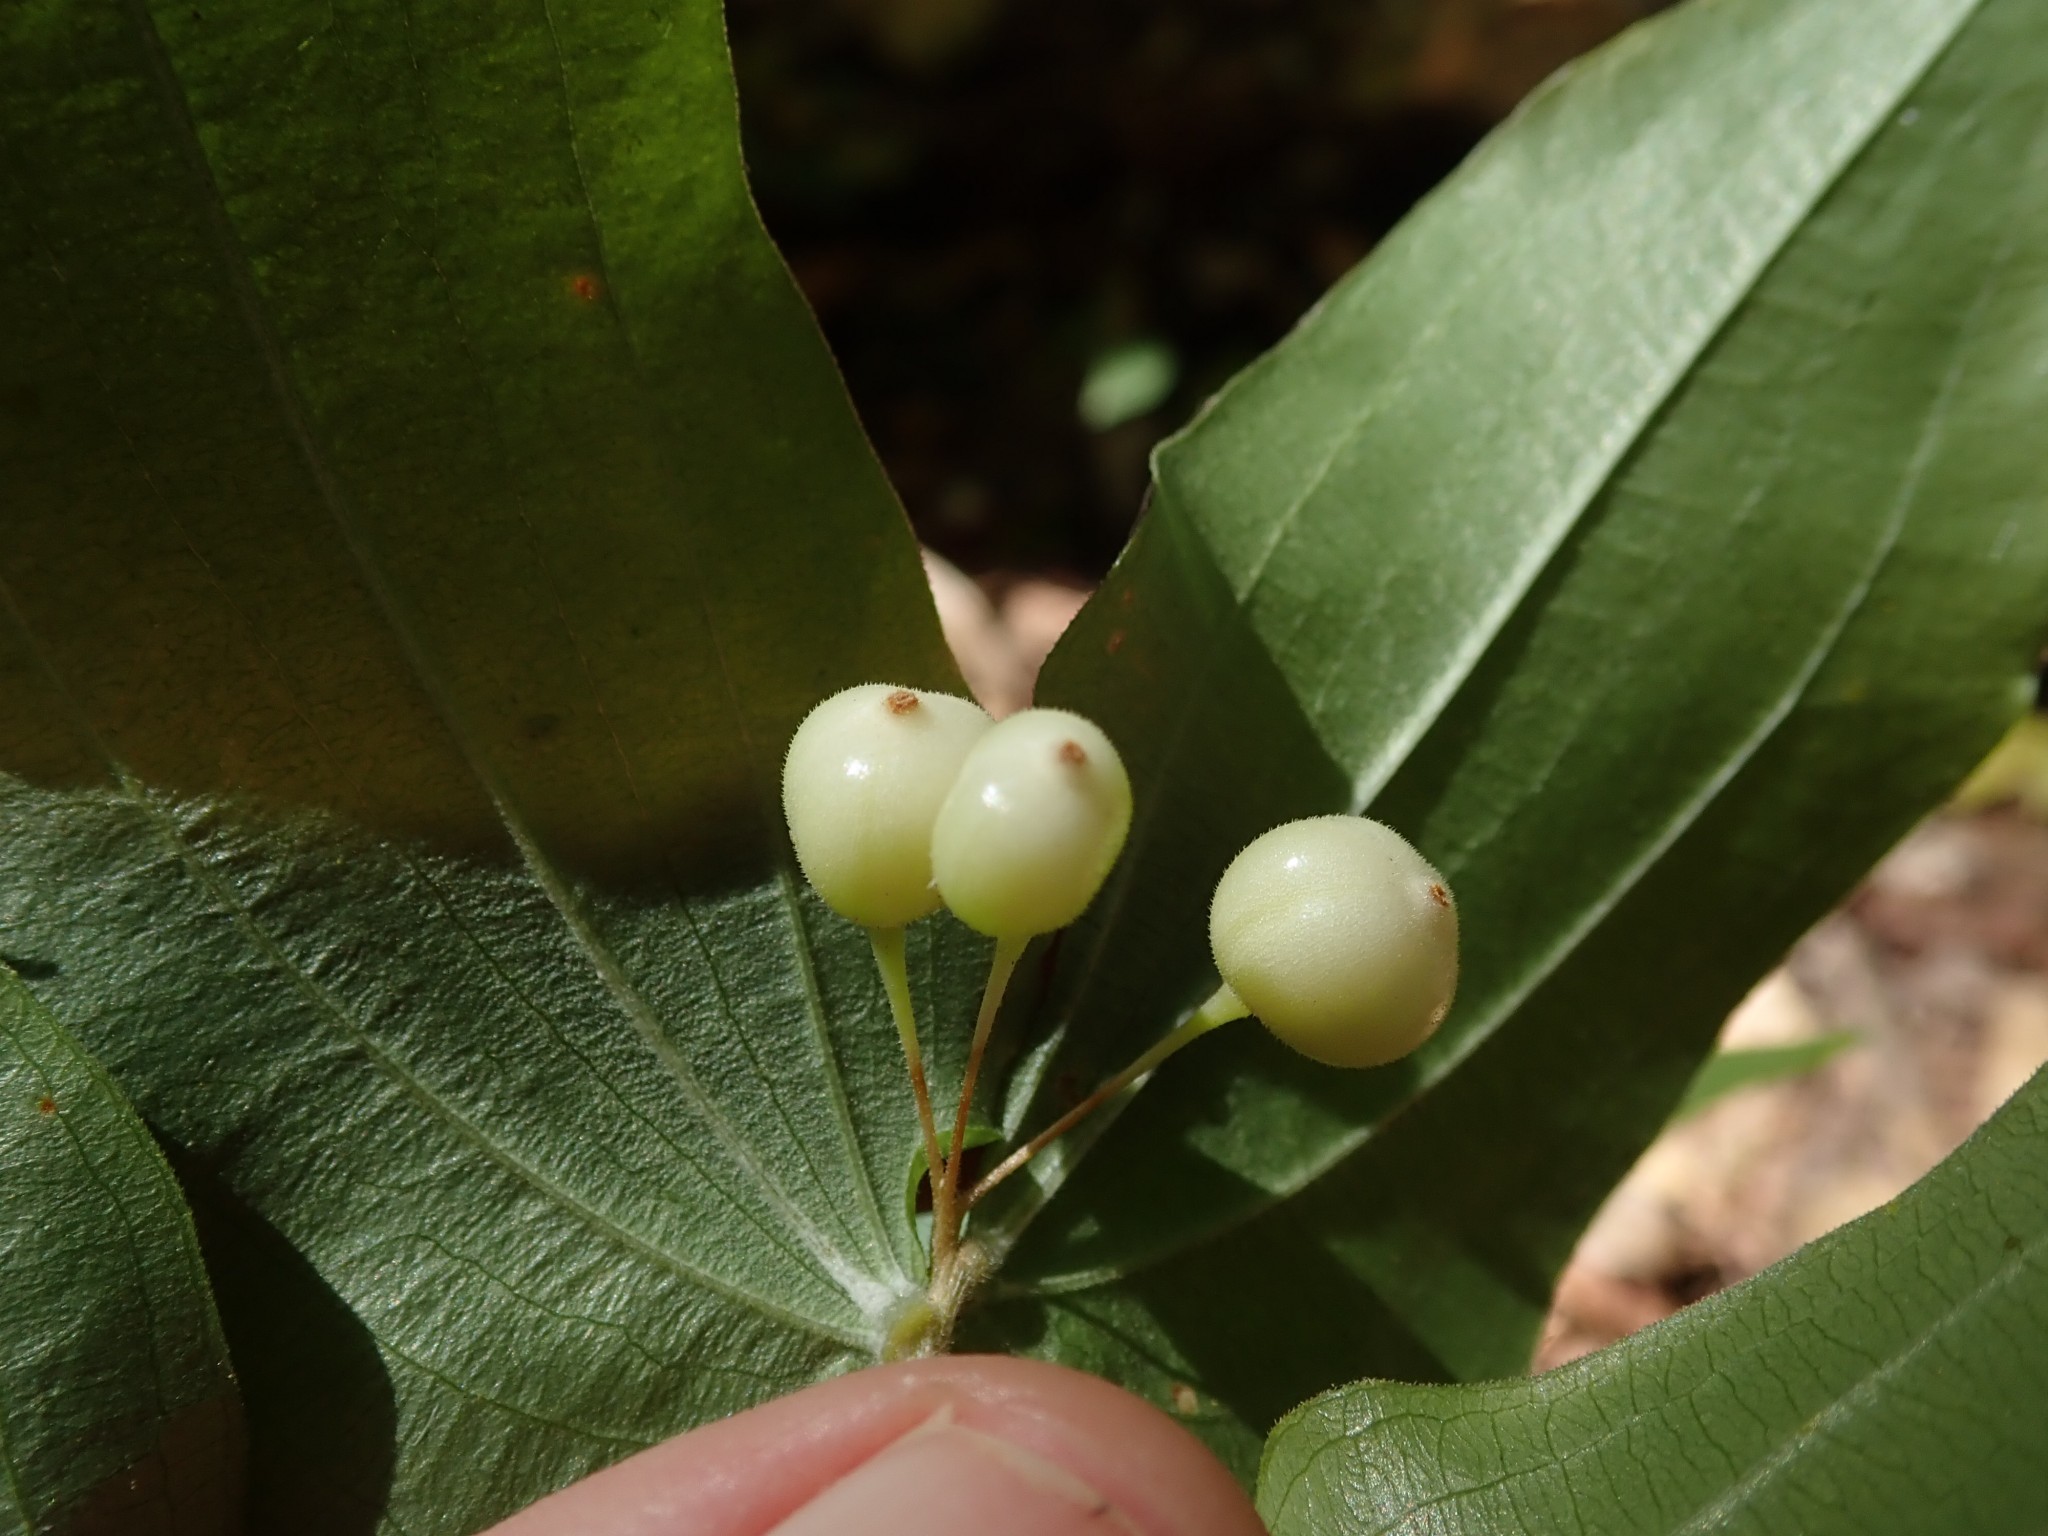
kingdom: Plantae
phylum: Tracheophyta
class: Liliopsida
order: Liliales
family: Liliaceae
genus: Prosartes
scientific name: Prosartes hookeri
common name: Fairy-bells
